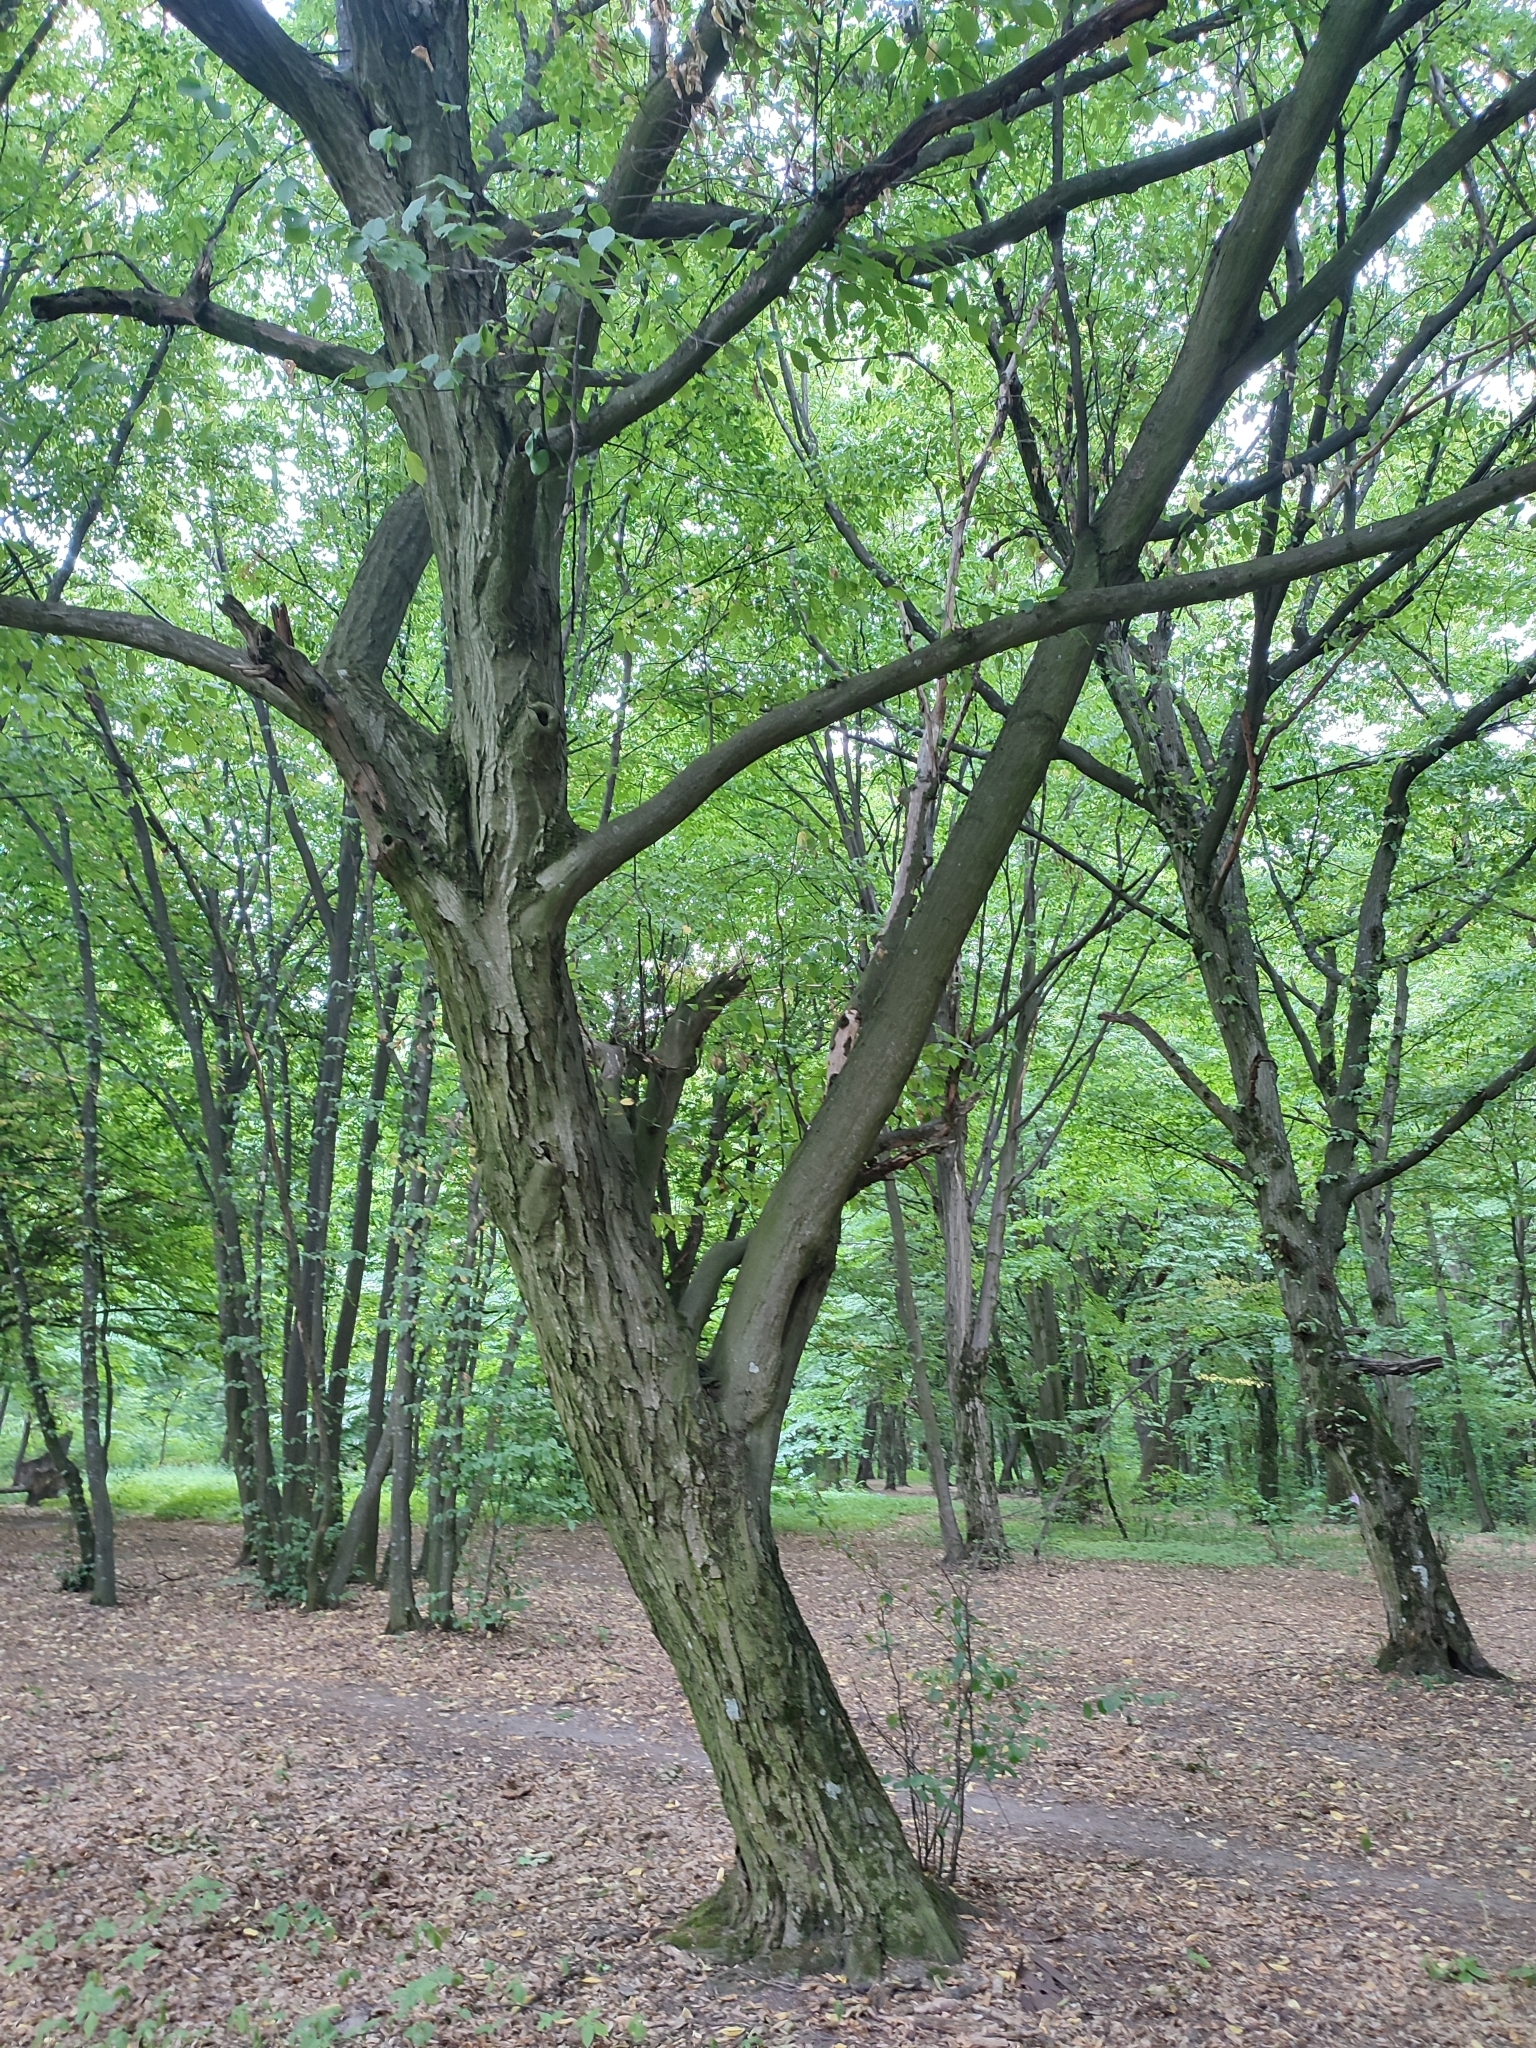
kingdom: Plantae
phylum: Tracheophyta
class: Magnoliopsida
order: Fagales
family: Betulaceae
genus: Carpinus
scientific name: Carpinus betulus
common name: Hornbeam
